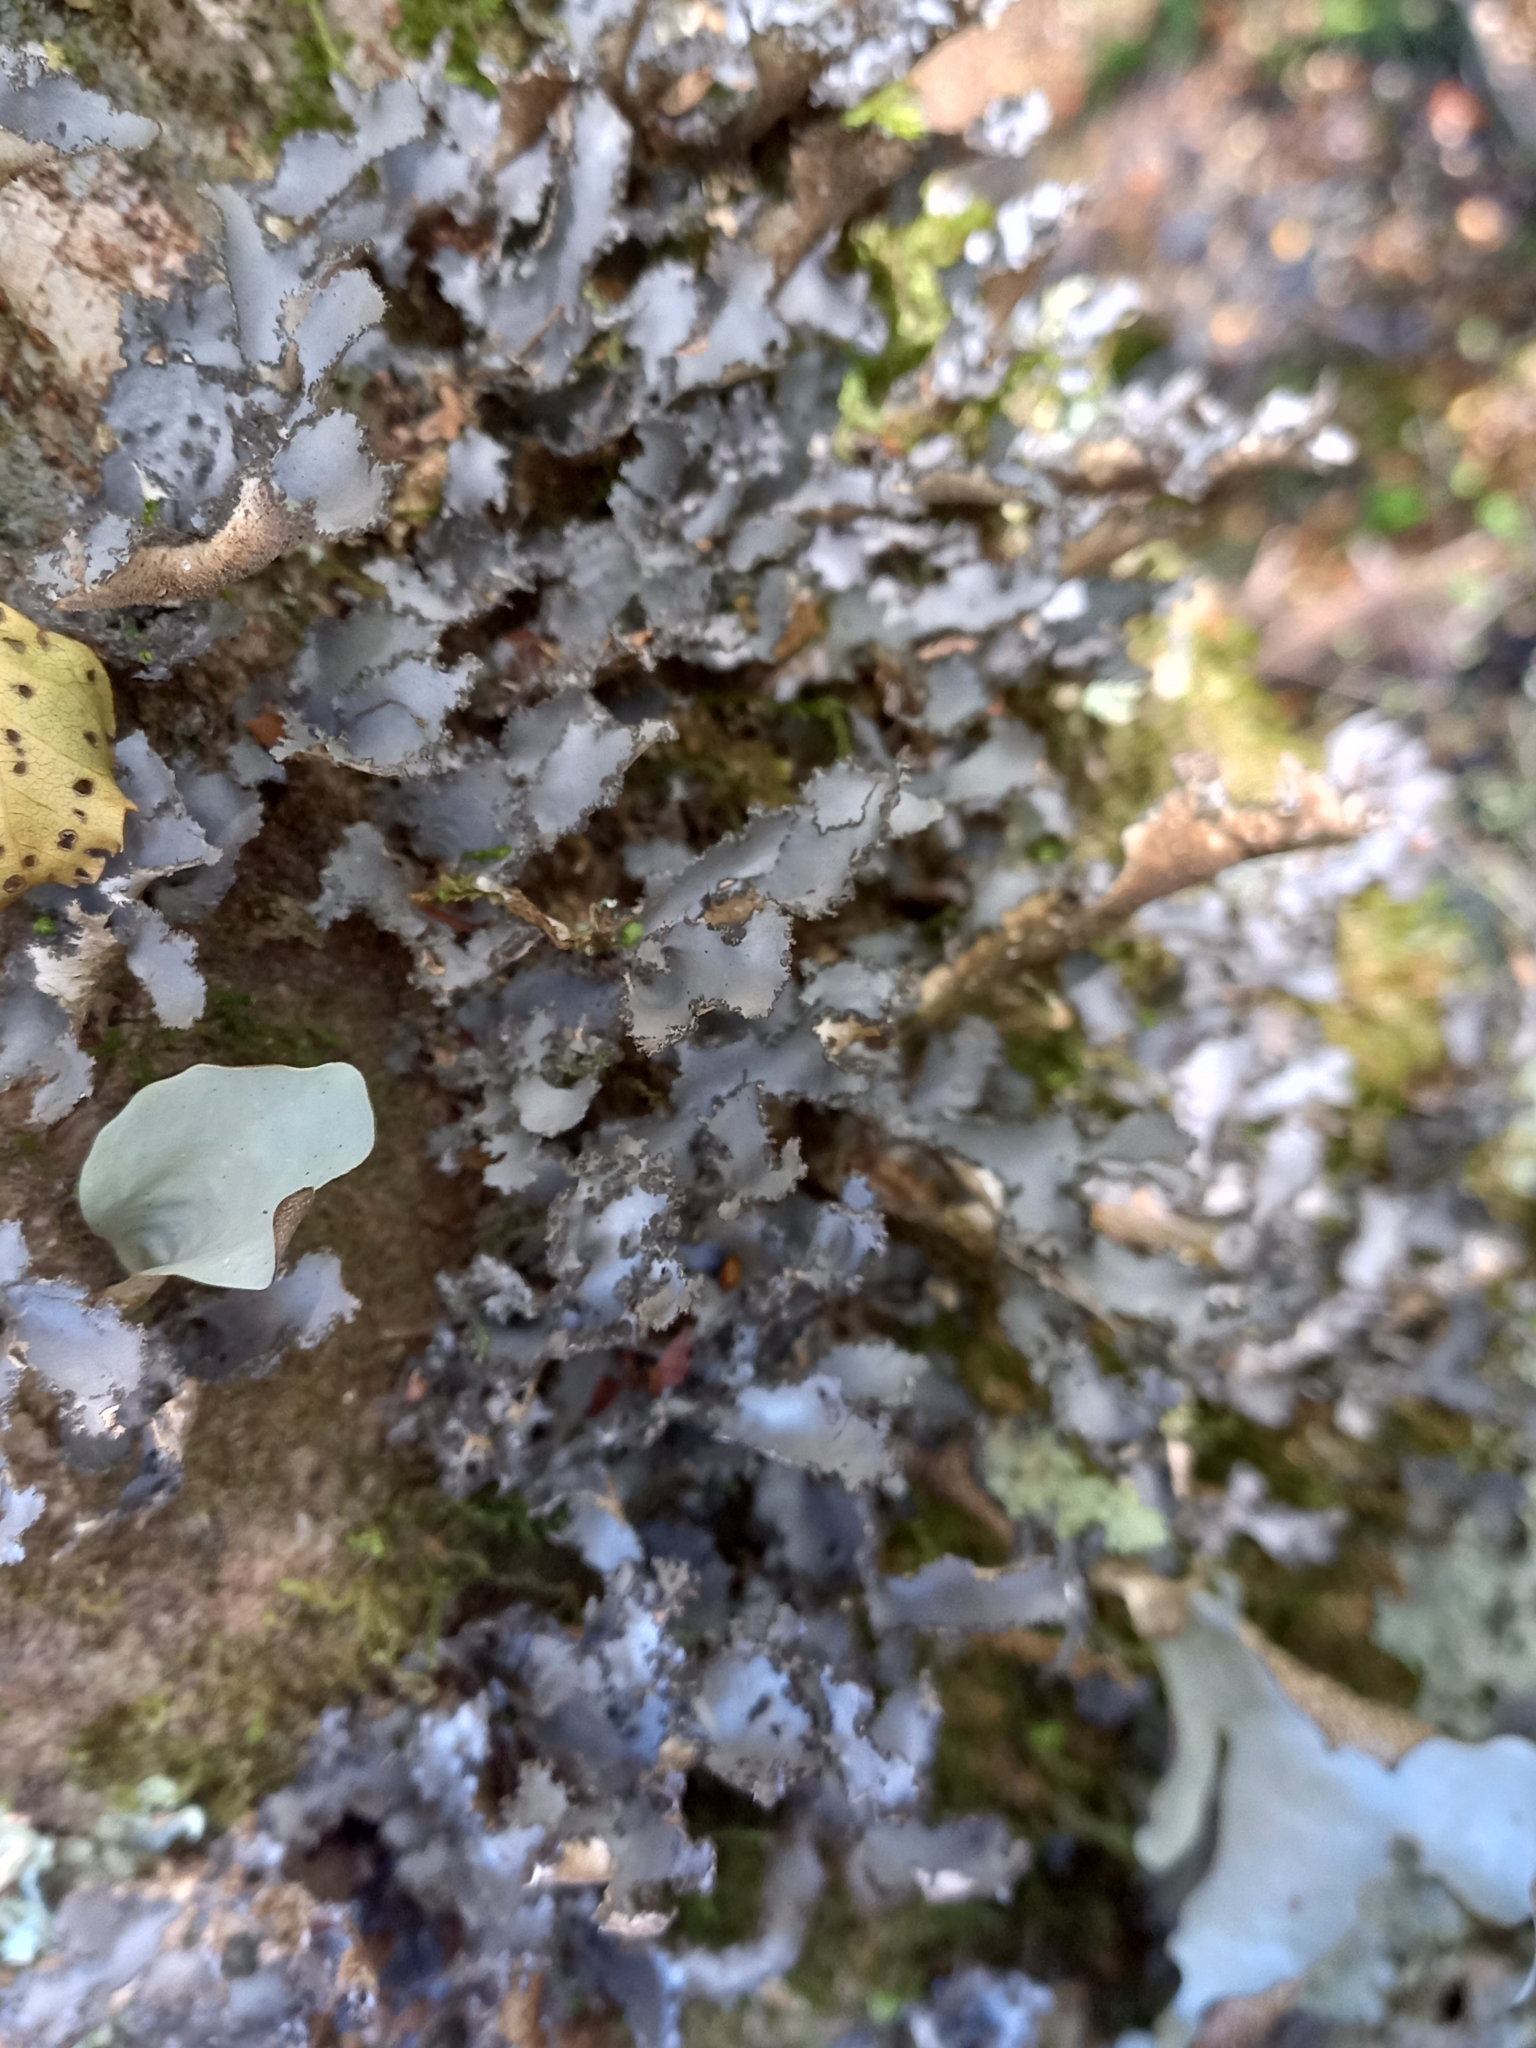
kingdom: Fungi
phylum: Ascomycota
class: Lecanoromycetes
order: Peltigerales
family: Lobariaceae
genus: Sticta
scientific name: Sticta caliginosa
